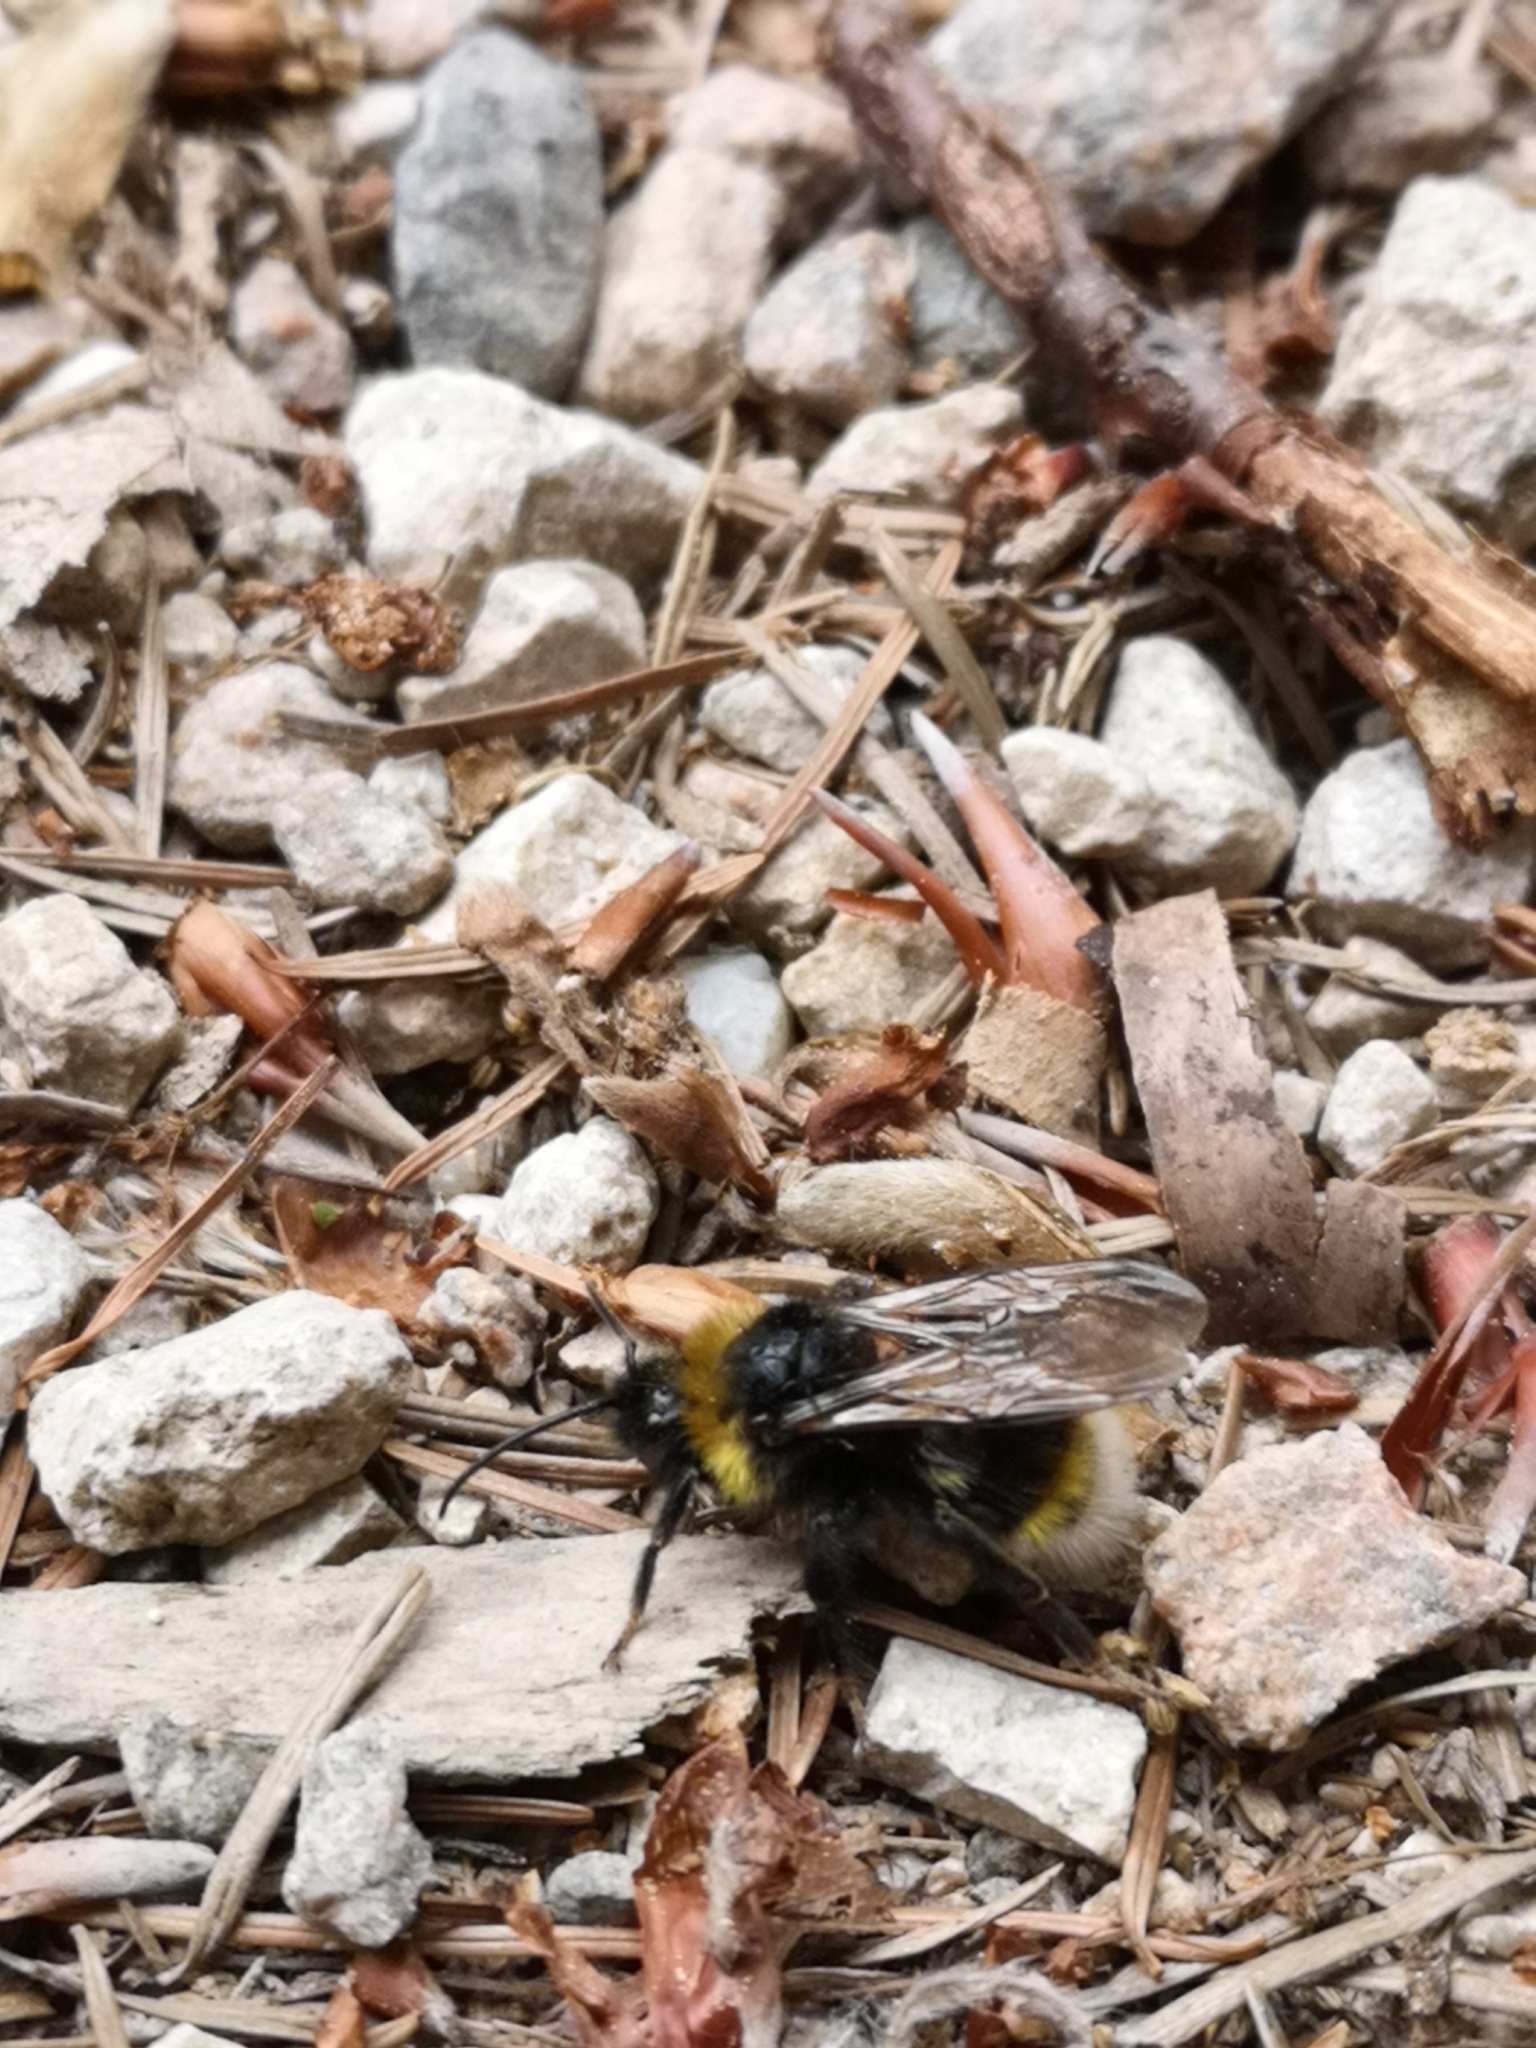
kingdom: Animalia
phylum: Arthropoda
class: Insecta
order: Hymenoptera
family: Apidae
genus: Bombus
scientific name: Bombus vestalis
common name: Vestal cuckoo bee
